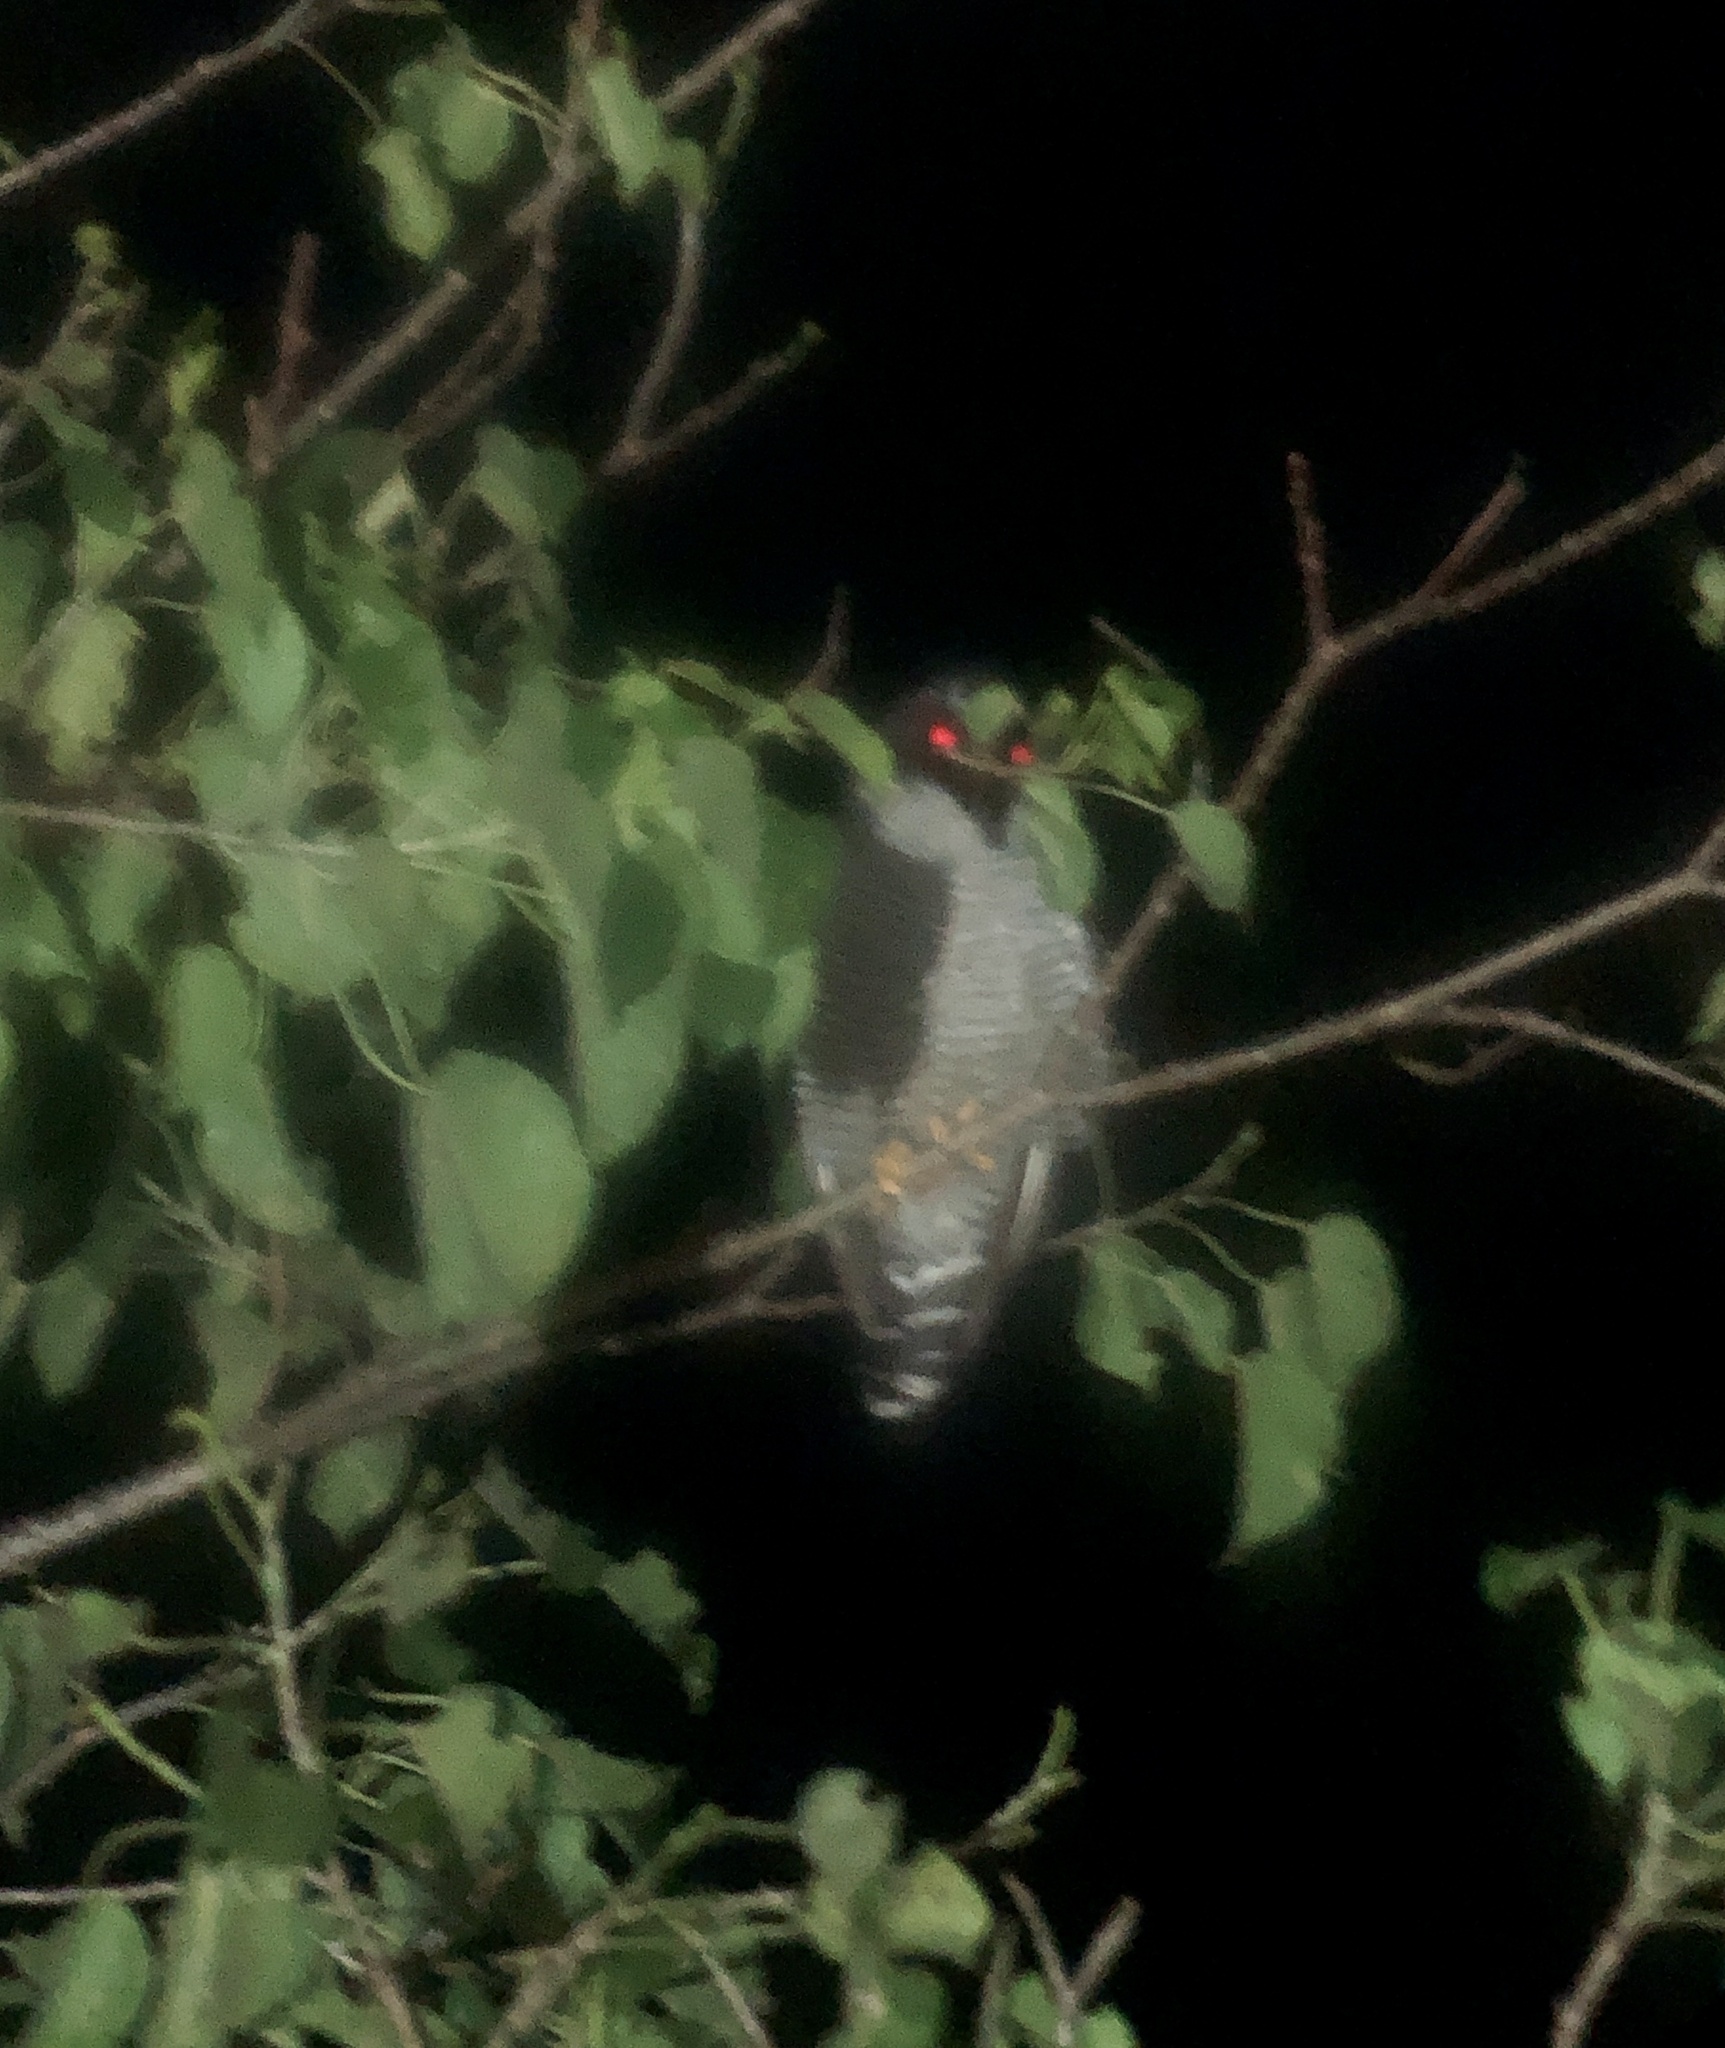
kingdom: Animalia
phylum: Chordata
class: Aves
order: Strigiformes
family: Strigidae
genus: Strix
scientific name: Strix nigrolineata
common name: Black-and-white owl
